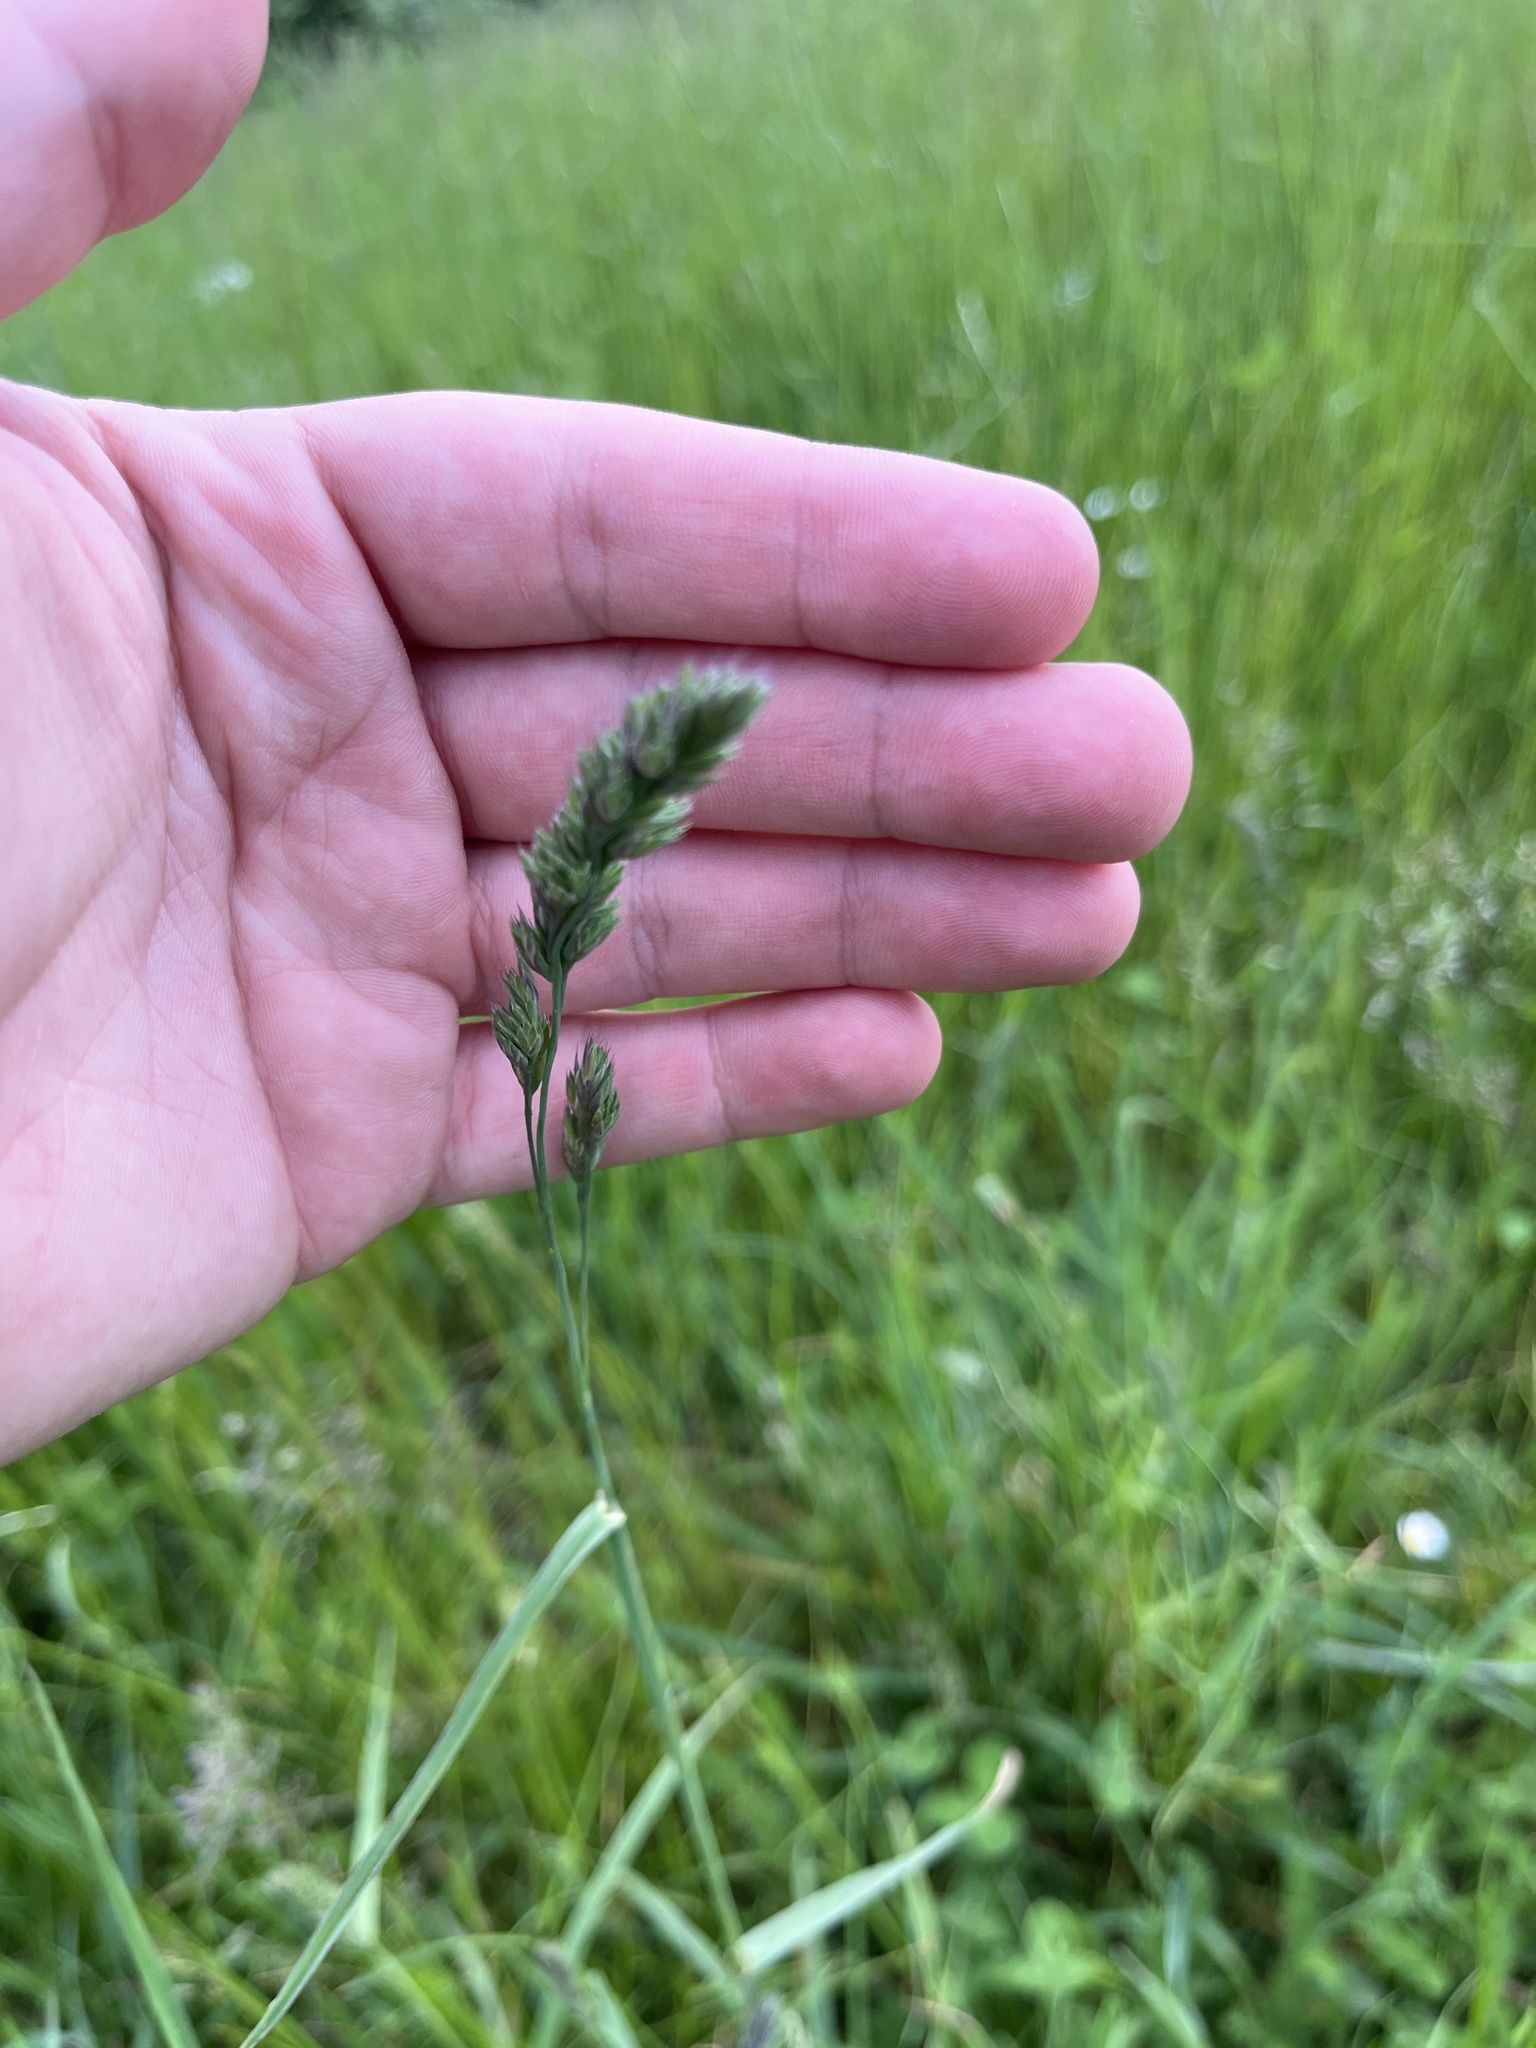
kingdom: Plantae
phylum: Tracheophyta
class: Liliopsida
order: Poales
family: Poaceae
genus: Dactylis
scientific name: Dactylis glomerata
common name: Orchardgrass
